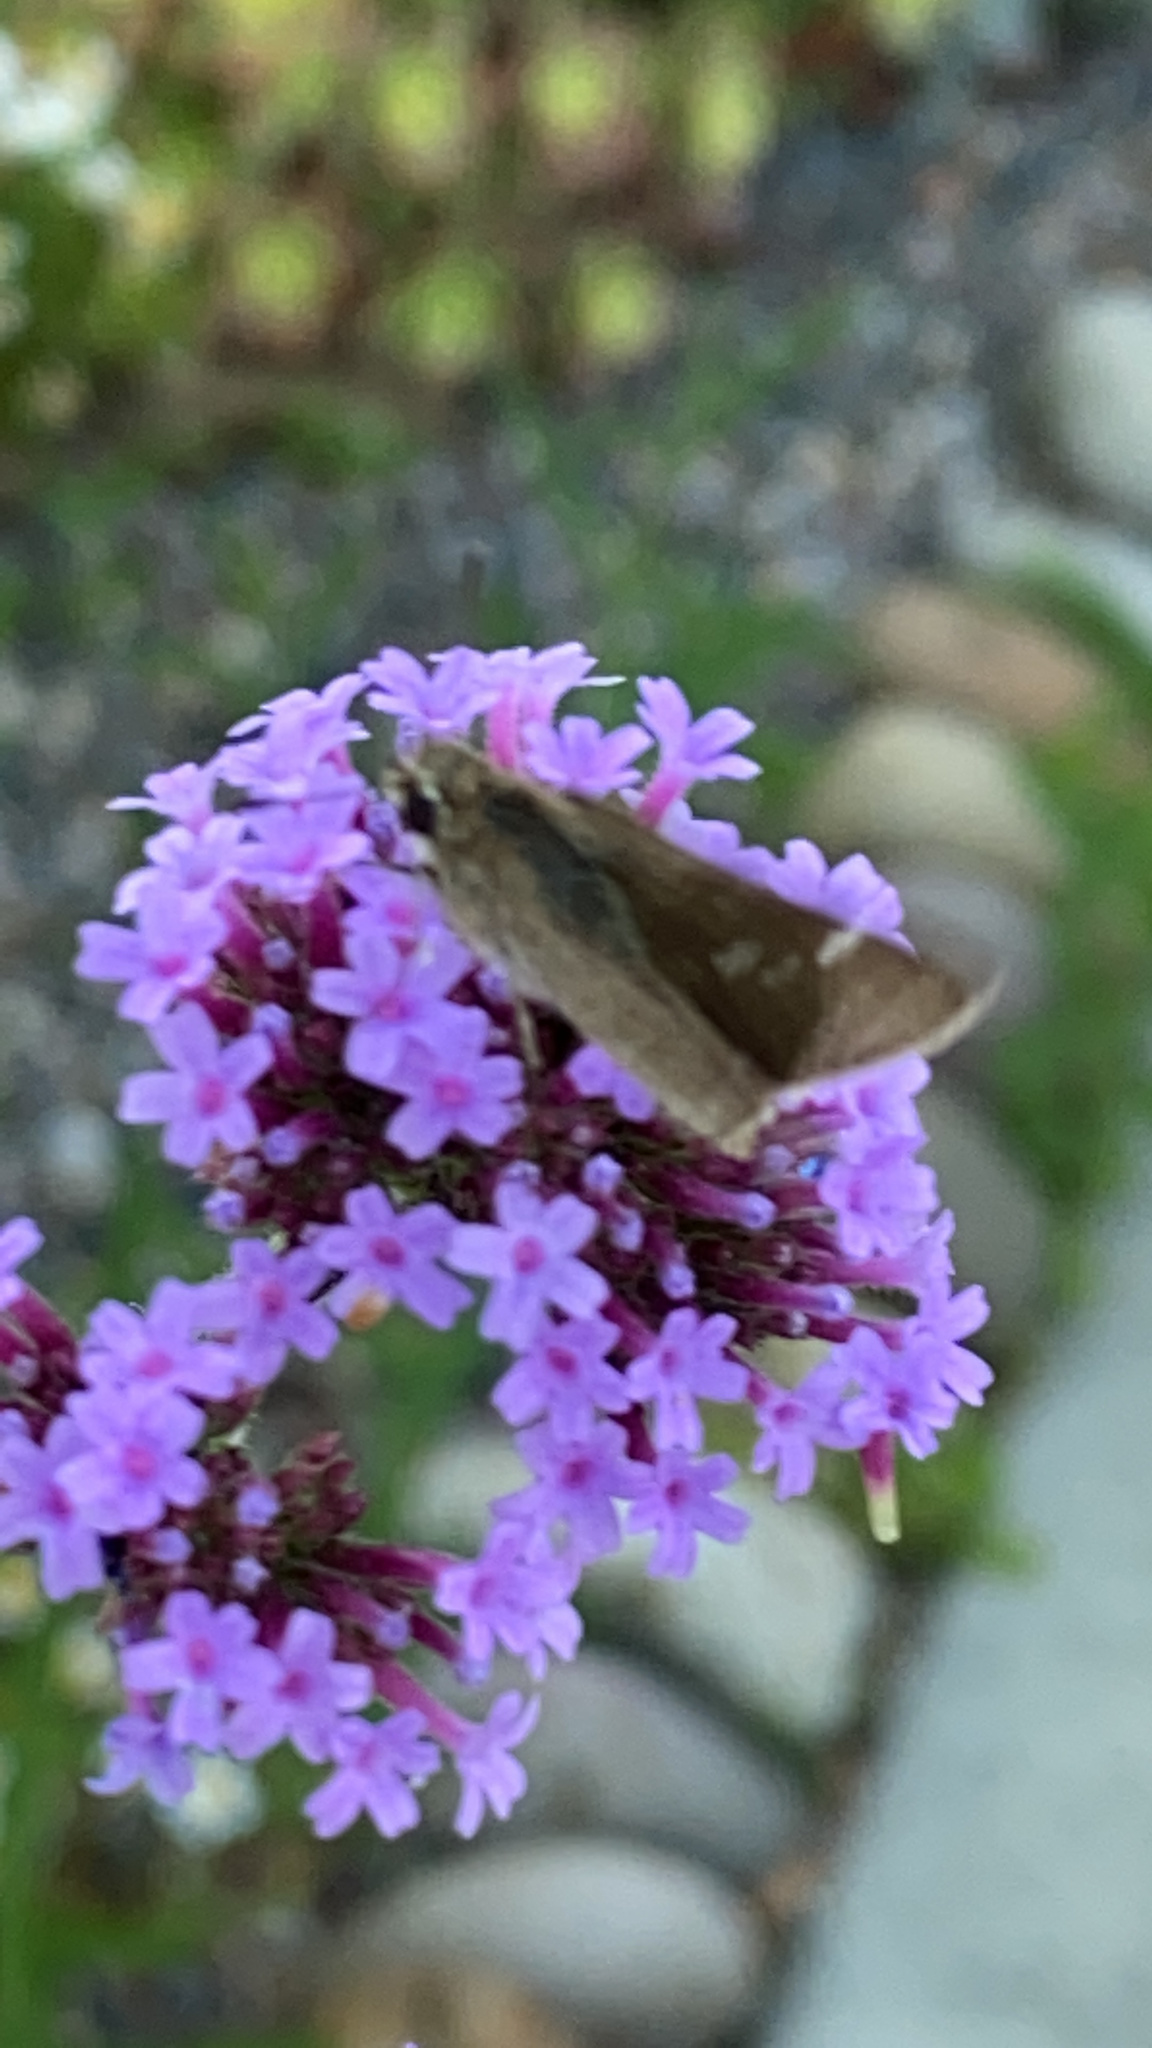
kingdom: Animalia
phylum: Arthropoda
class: Insecta
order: Lepidoptera
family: Hesperiidae
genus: Lerodea
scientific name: Lerodea eufala
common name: Eufala skipper
